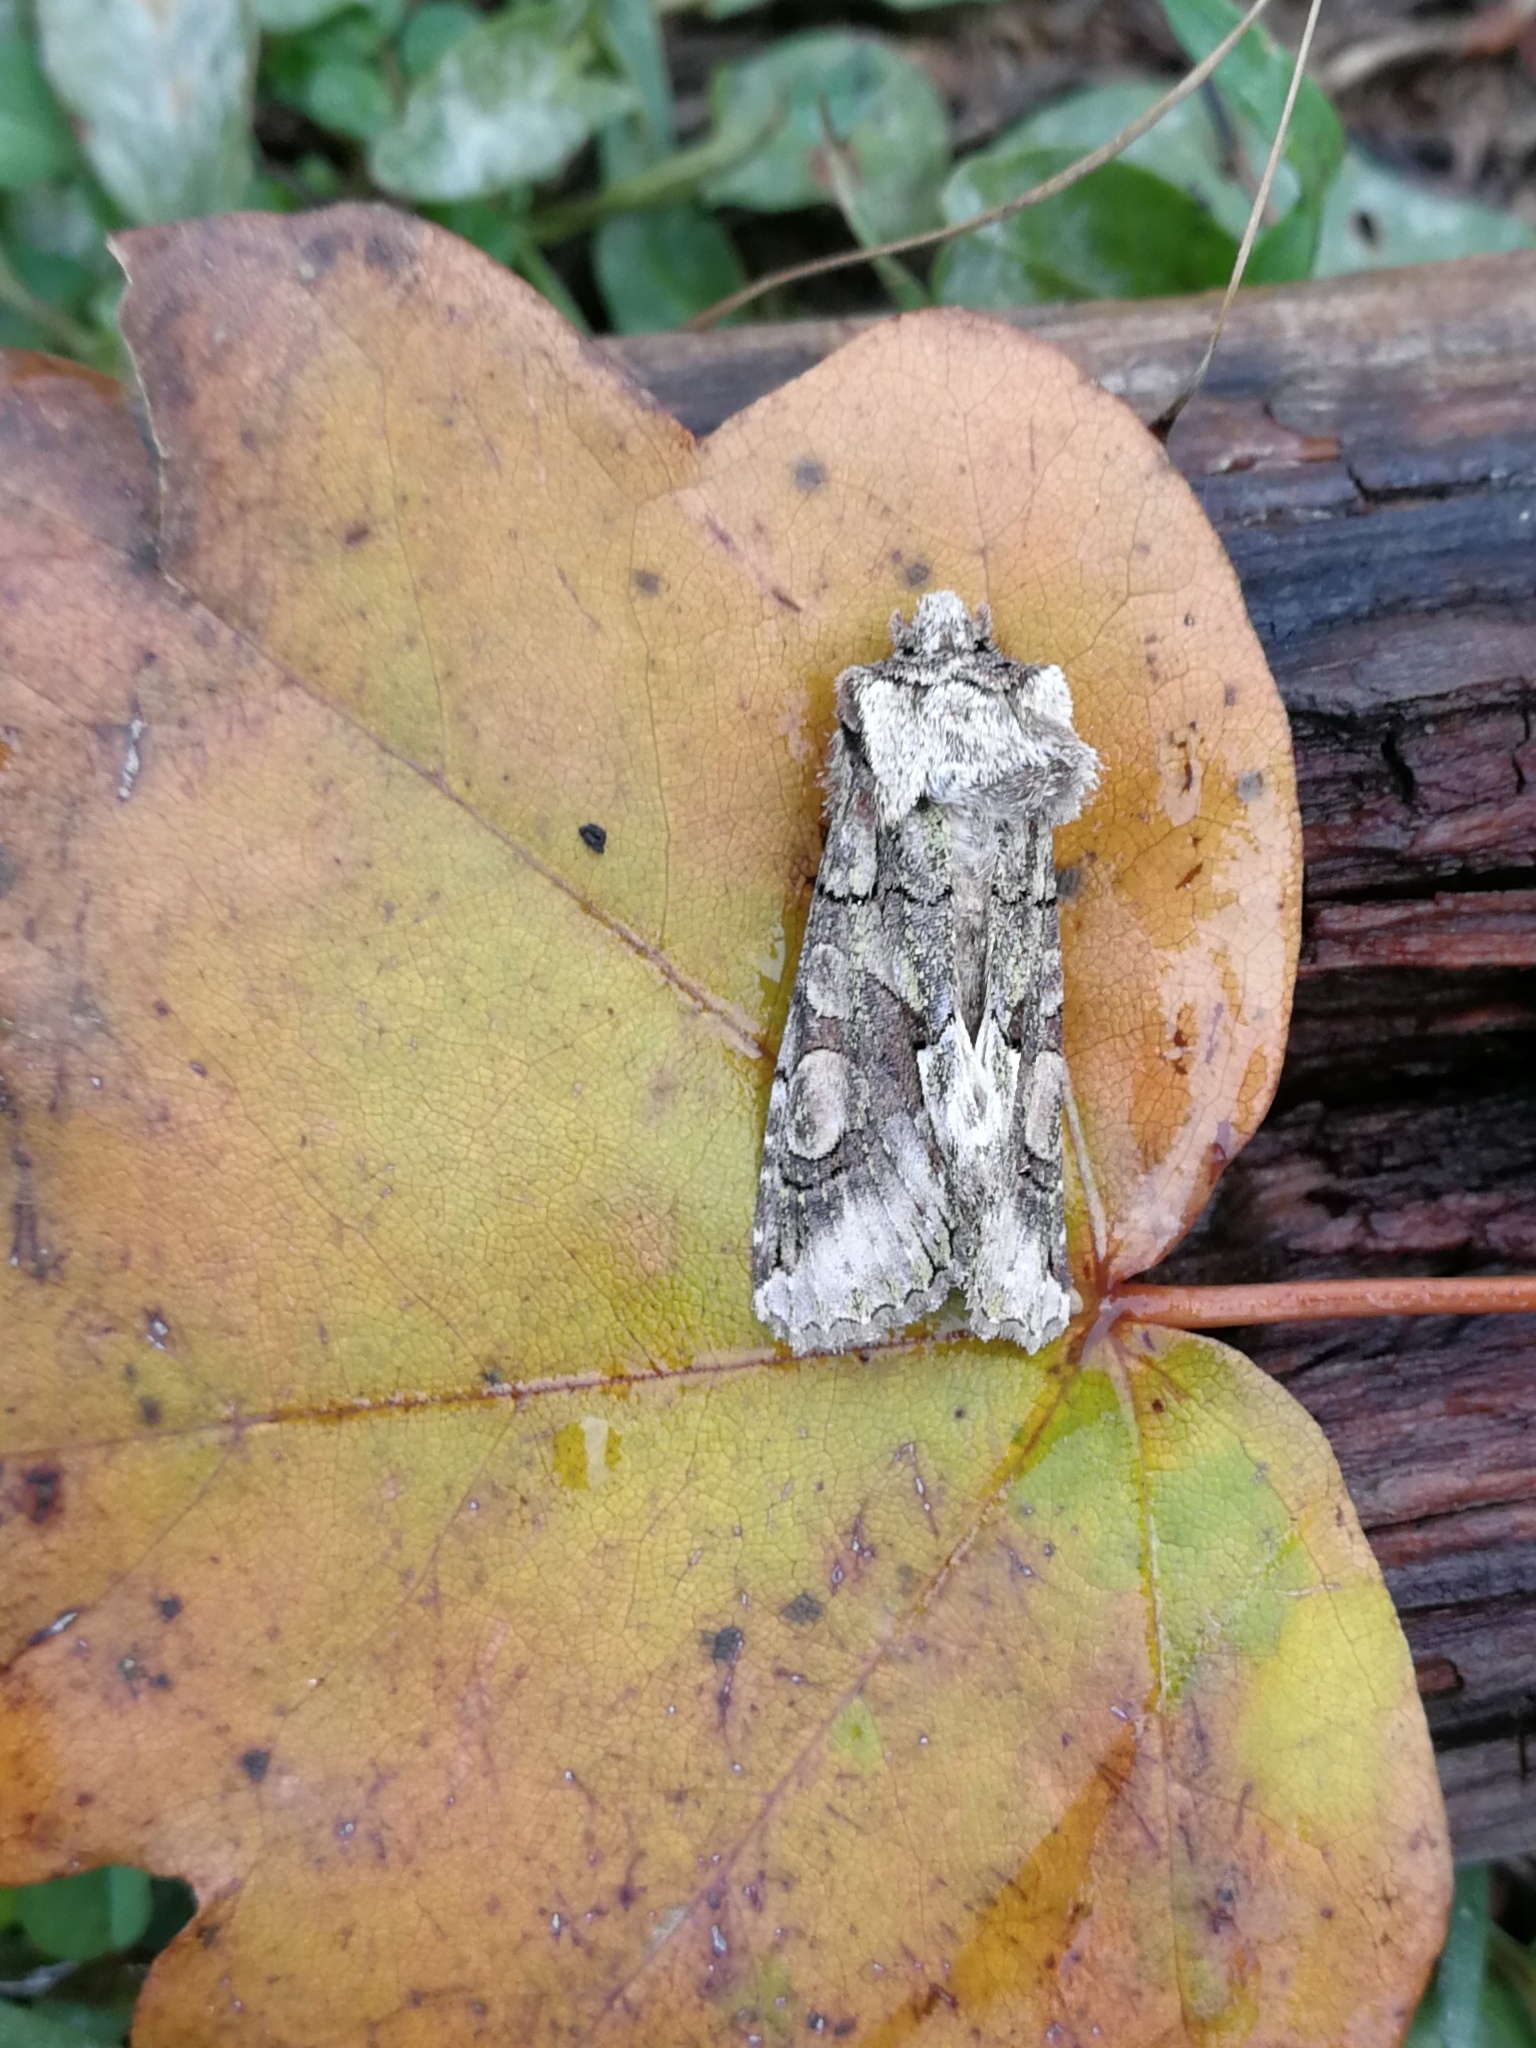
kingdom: Animalia
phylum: Arthropoda
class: Insecta
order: Lepidoptera
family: Noctuidae
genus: Allophyes
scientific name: Allophyes alfaroi
